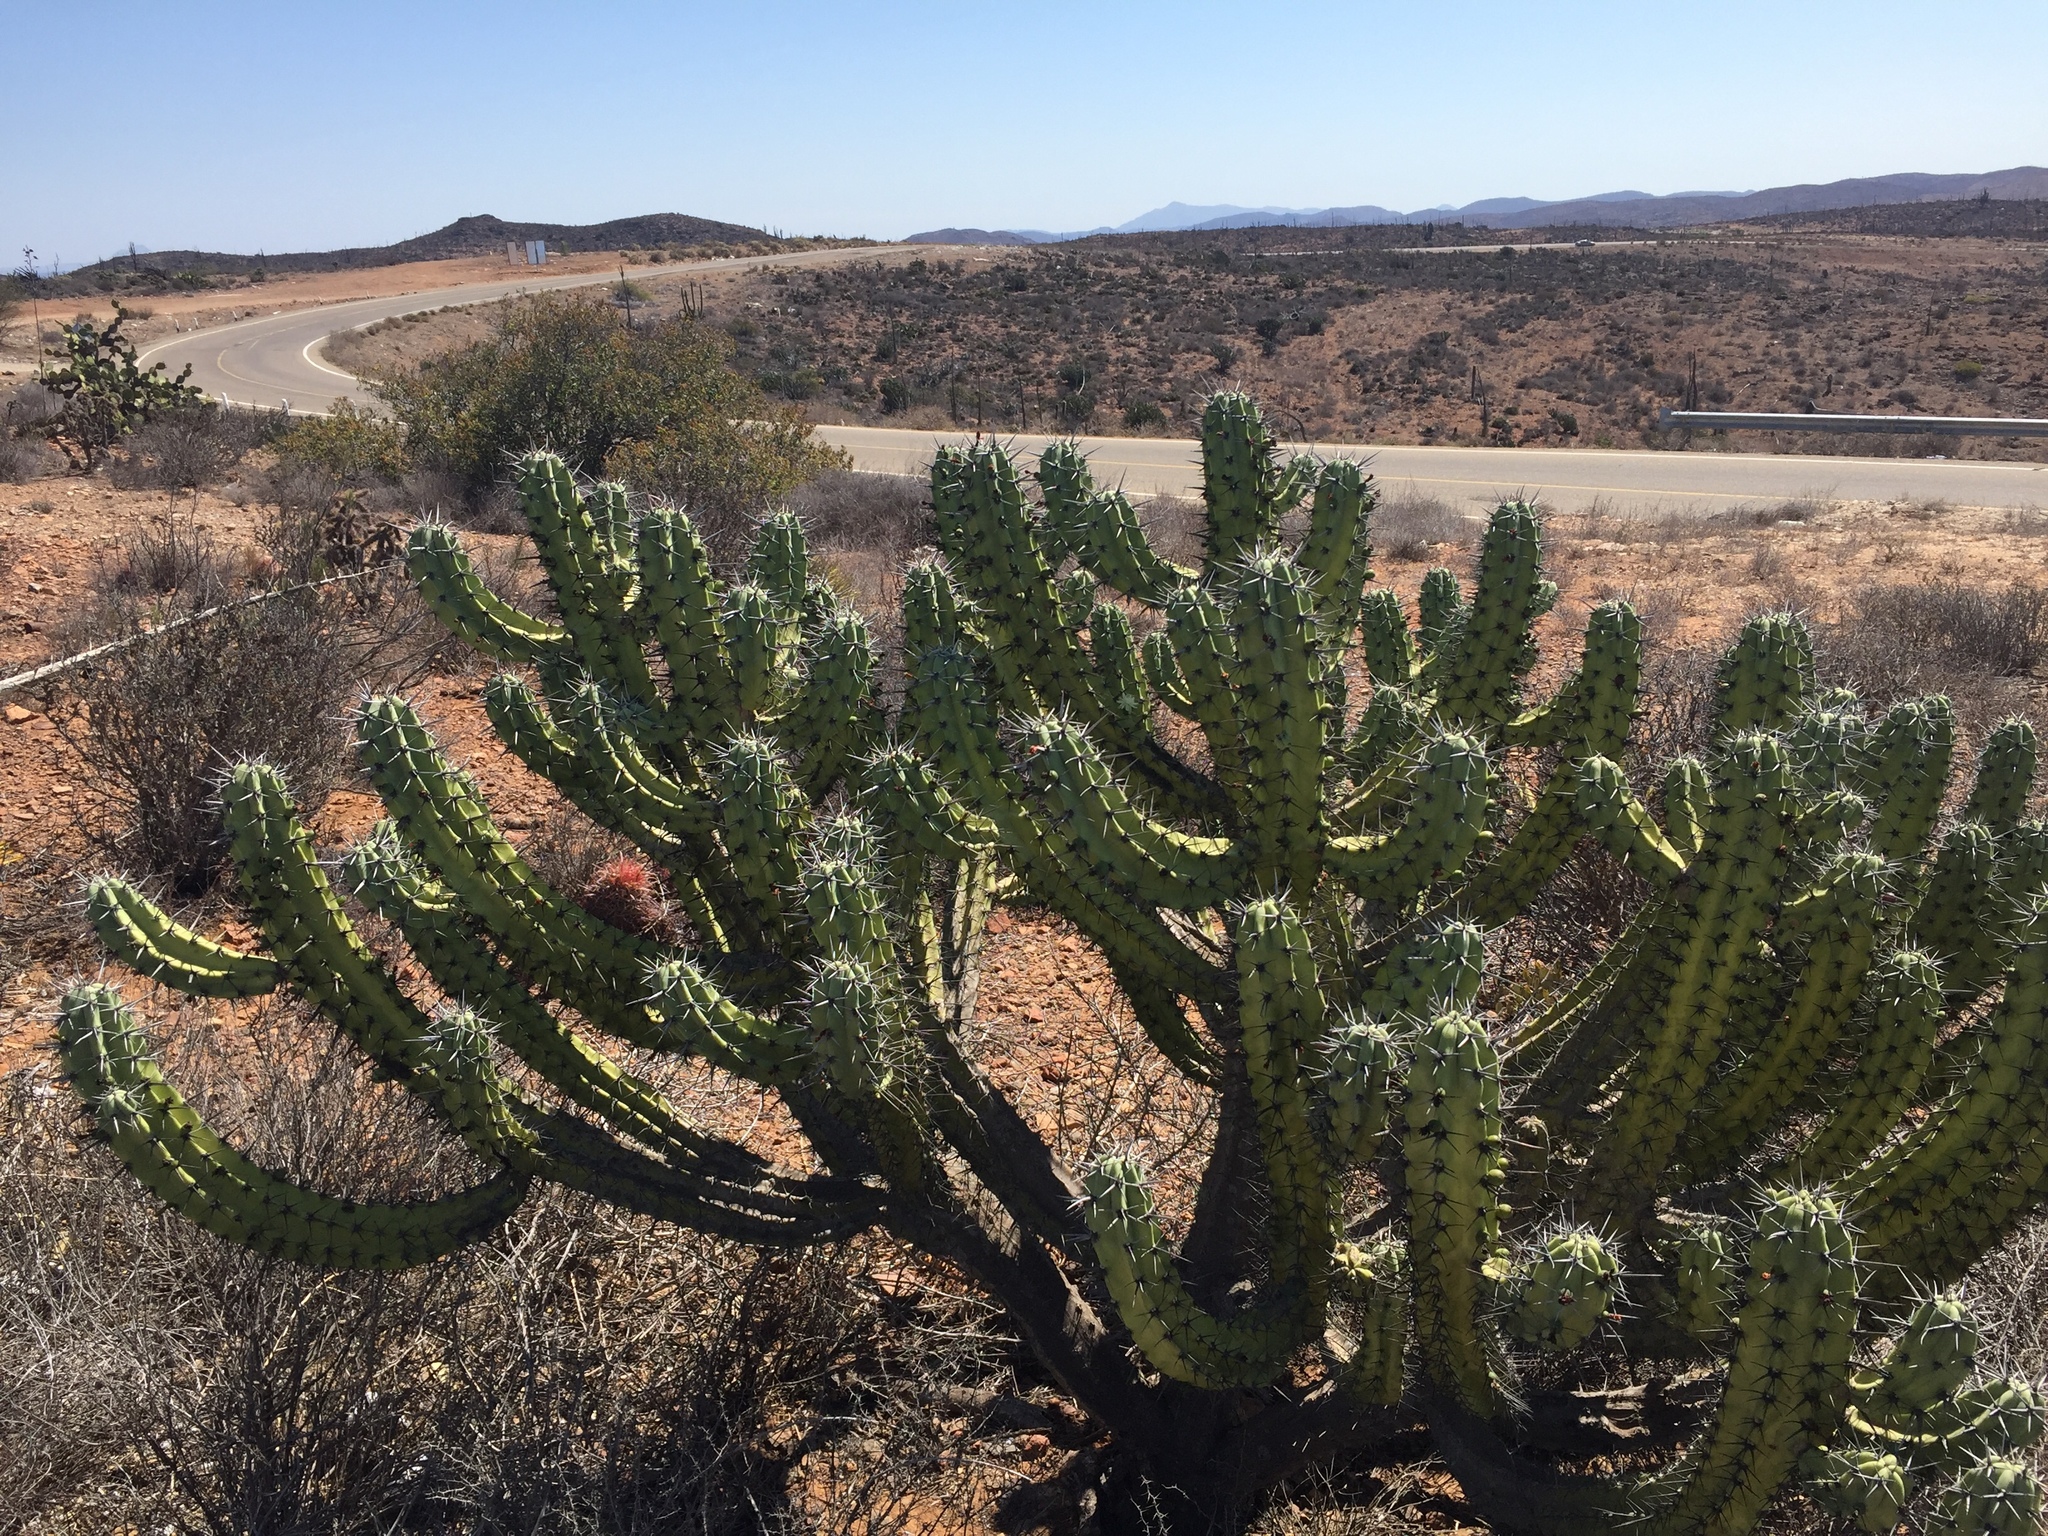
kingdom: Plantae
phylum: Tracheophyta
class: Magnoliopsida
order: Caryophyllales
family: Cactaceae
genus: Myrtillocactus
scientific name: Myrtillocactus cochal
